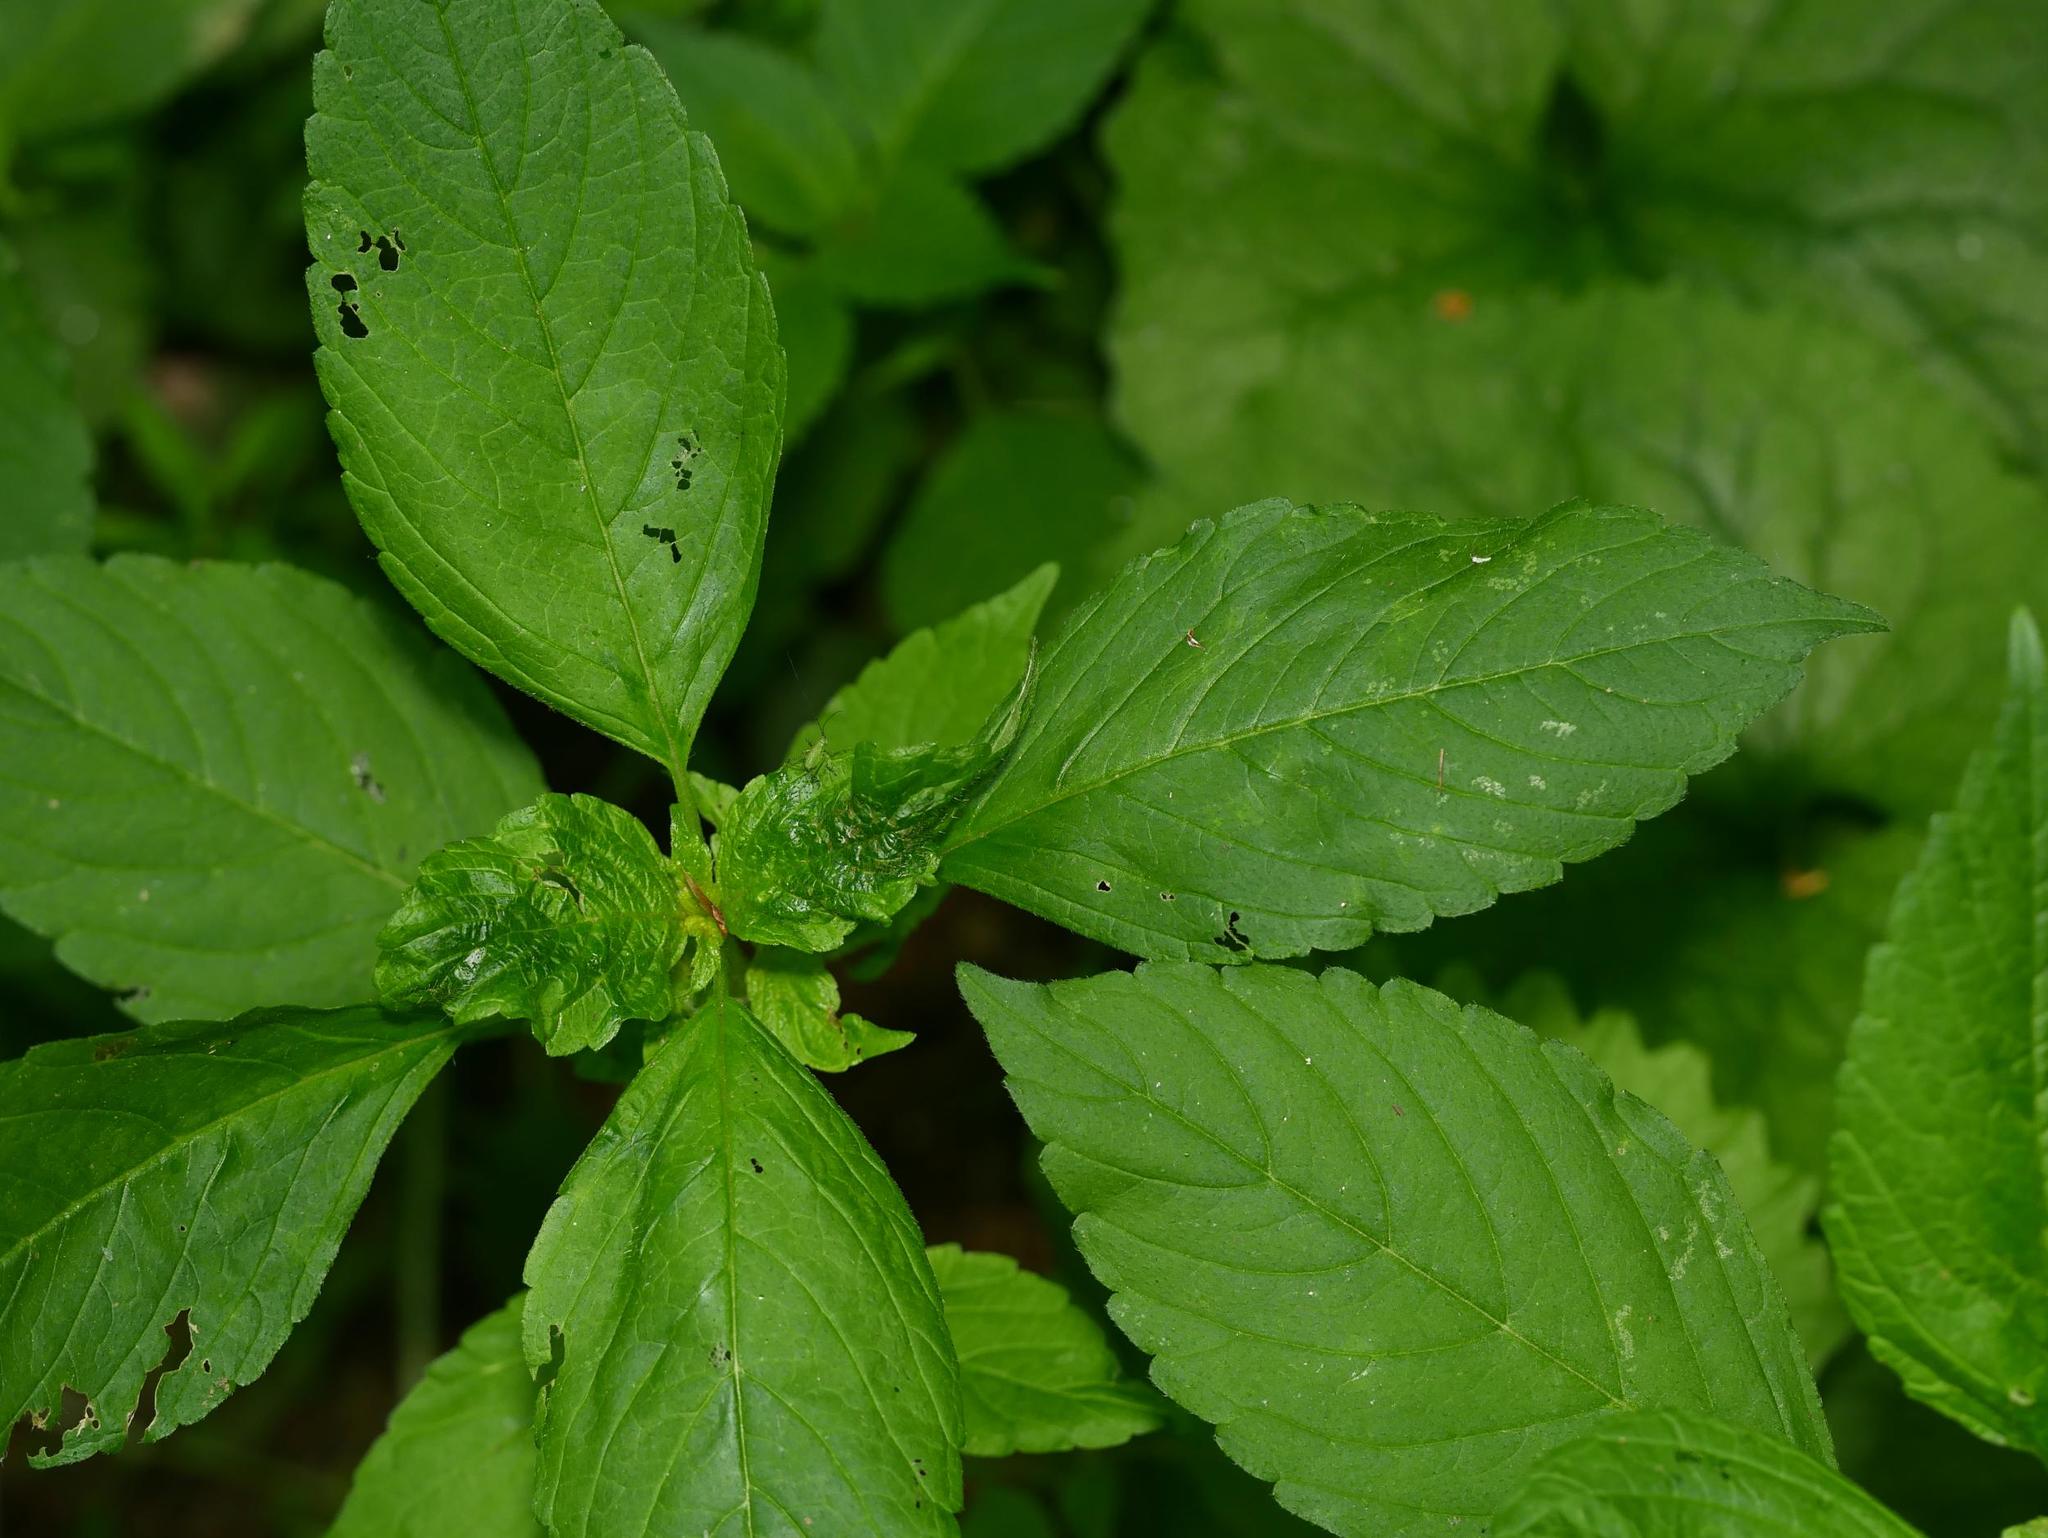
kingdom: Plantae
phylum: Tracheophyta
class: Magnoliopsida
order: Ericales
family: Balsaminaceae
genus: Impatiens
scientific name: Impatiens parviflora
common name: Small balsam
